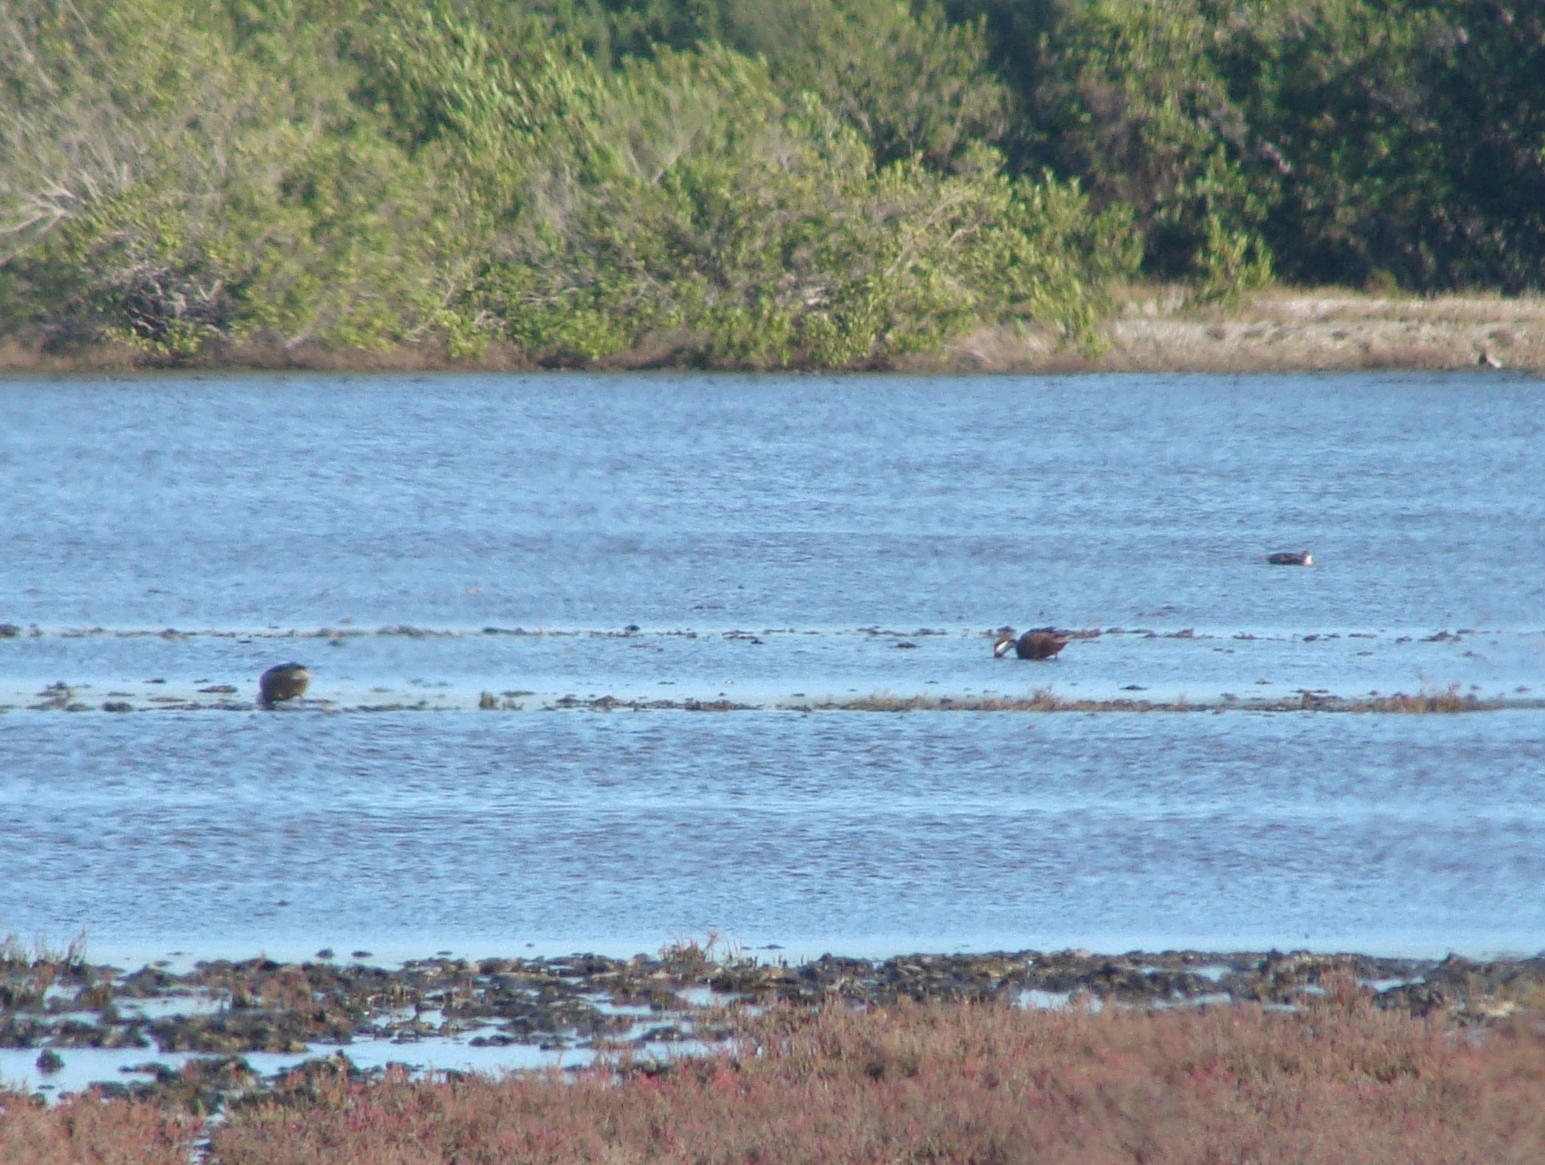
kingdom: Animalia
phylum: Chordata
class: Aves
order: Anseriformes
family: Anatidae
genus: Anas
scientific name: Anas bahamensis
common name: White-cheeked pintail
